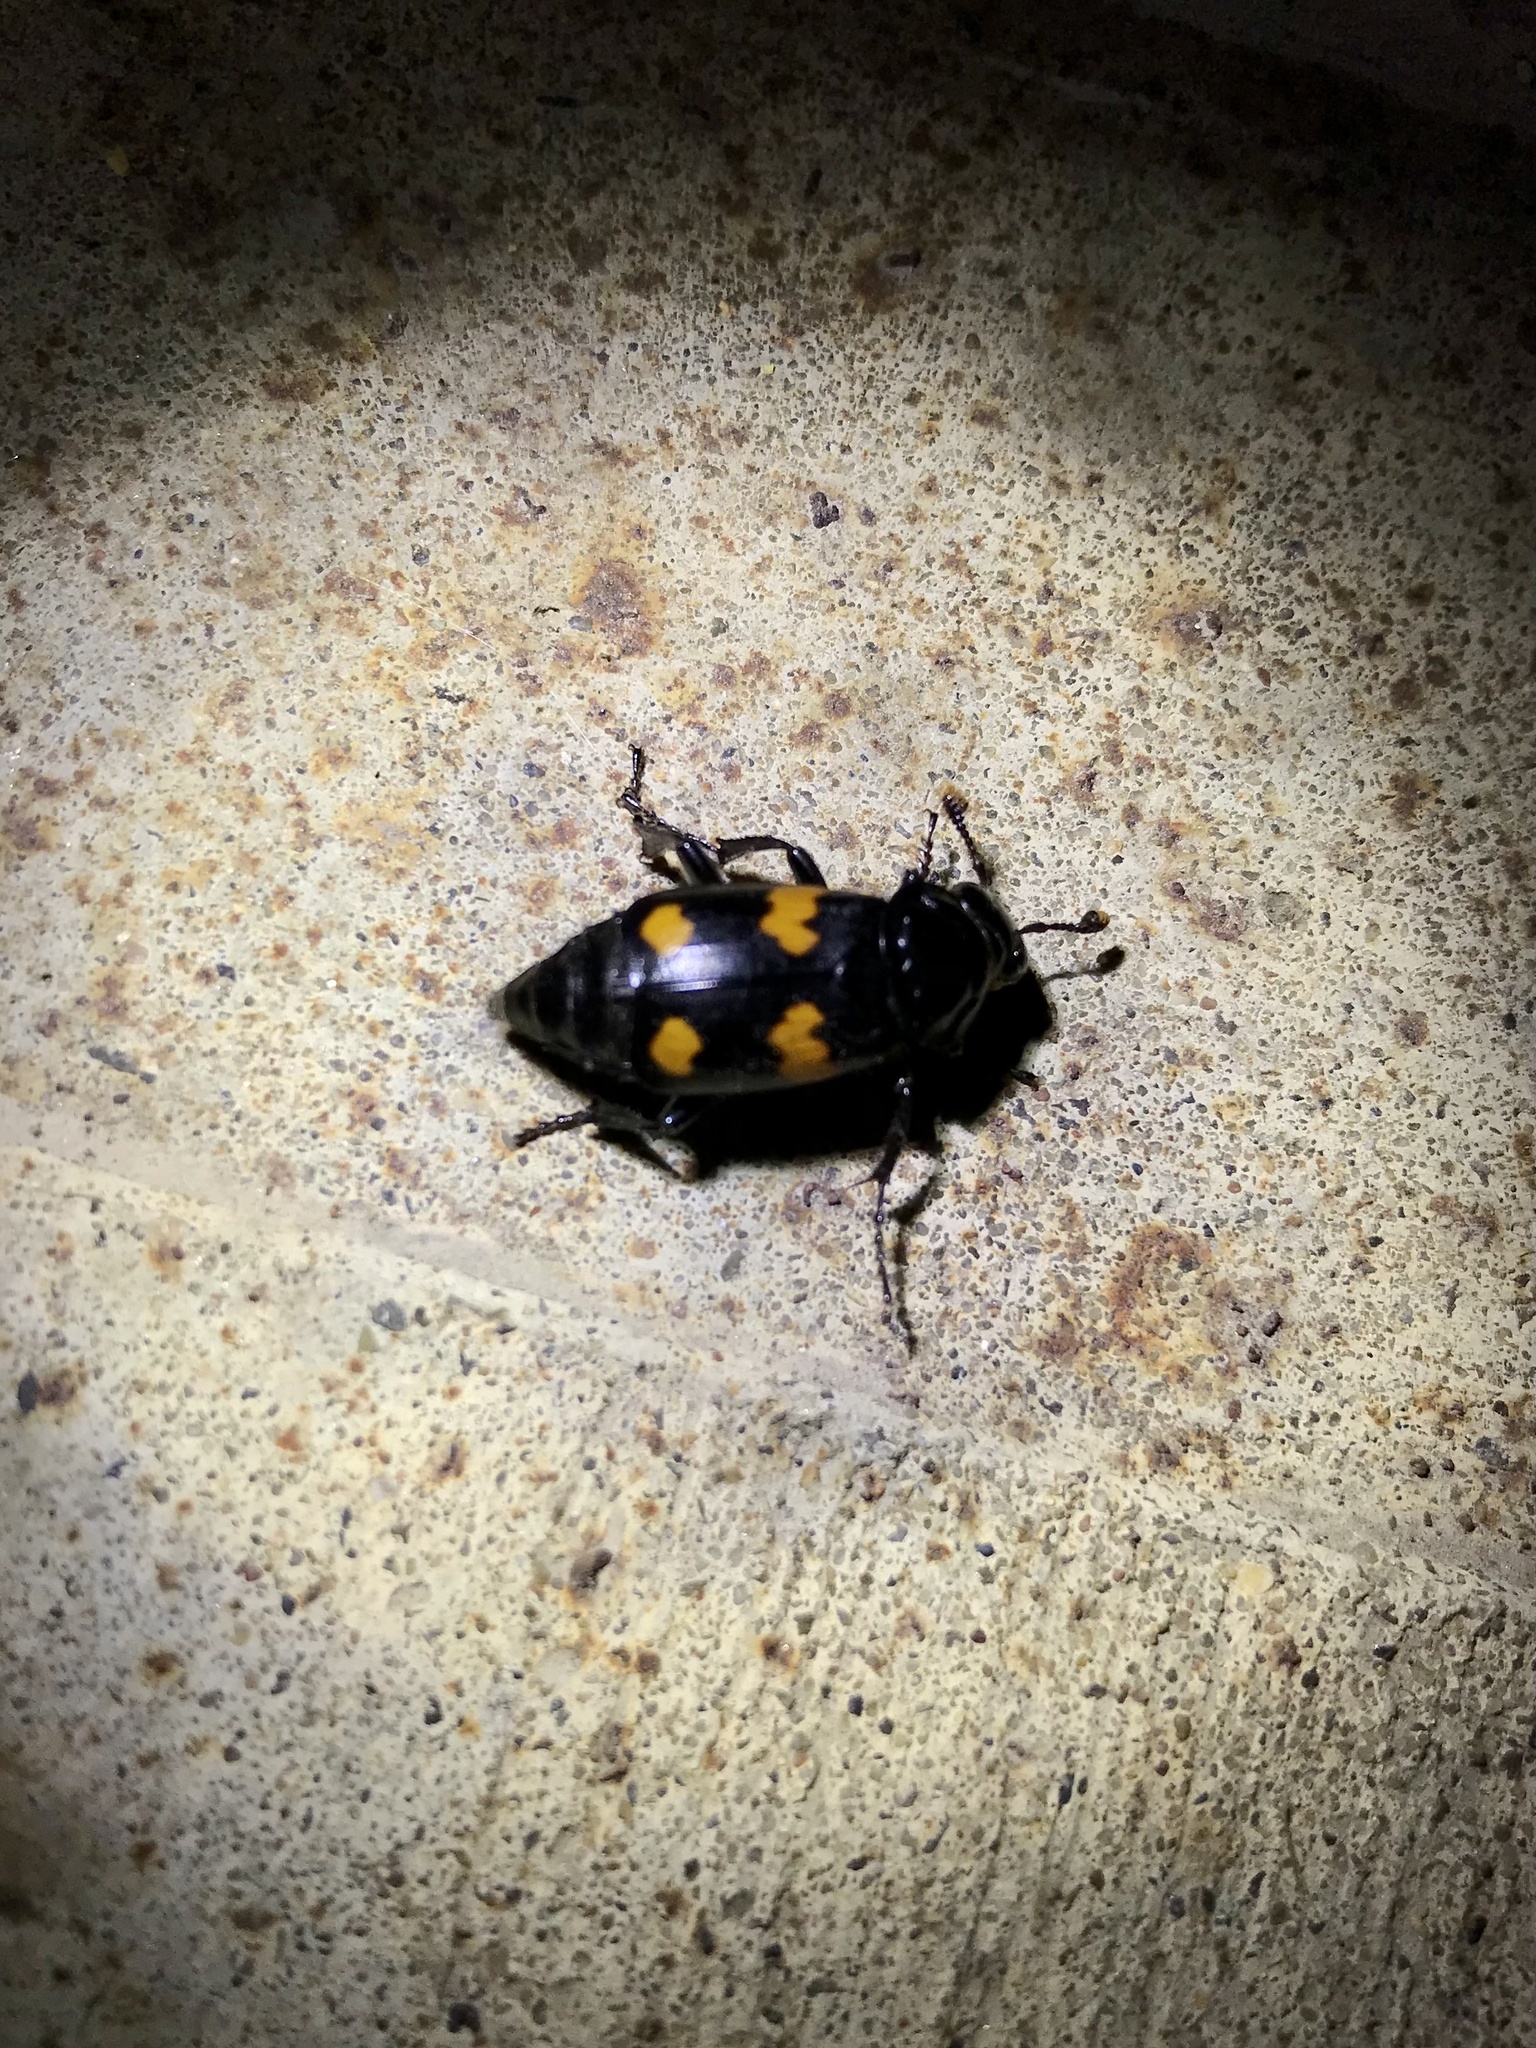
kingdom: Animalia
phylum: Arthropoda
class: Insecta
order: Coleoptera
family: Staphylinidae
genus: Nicrophorus
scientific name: Nicrophorus orbicollis
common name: Roundneck sexton beetle
